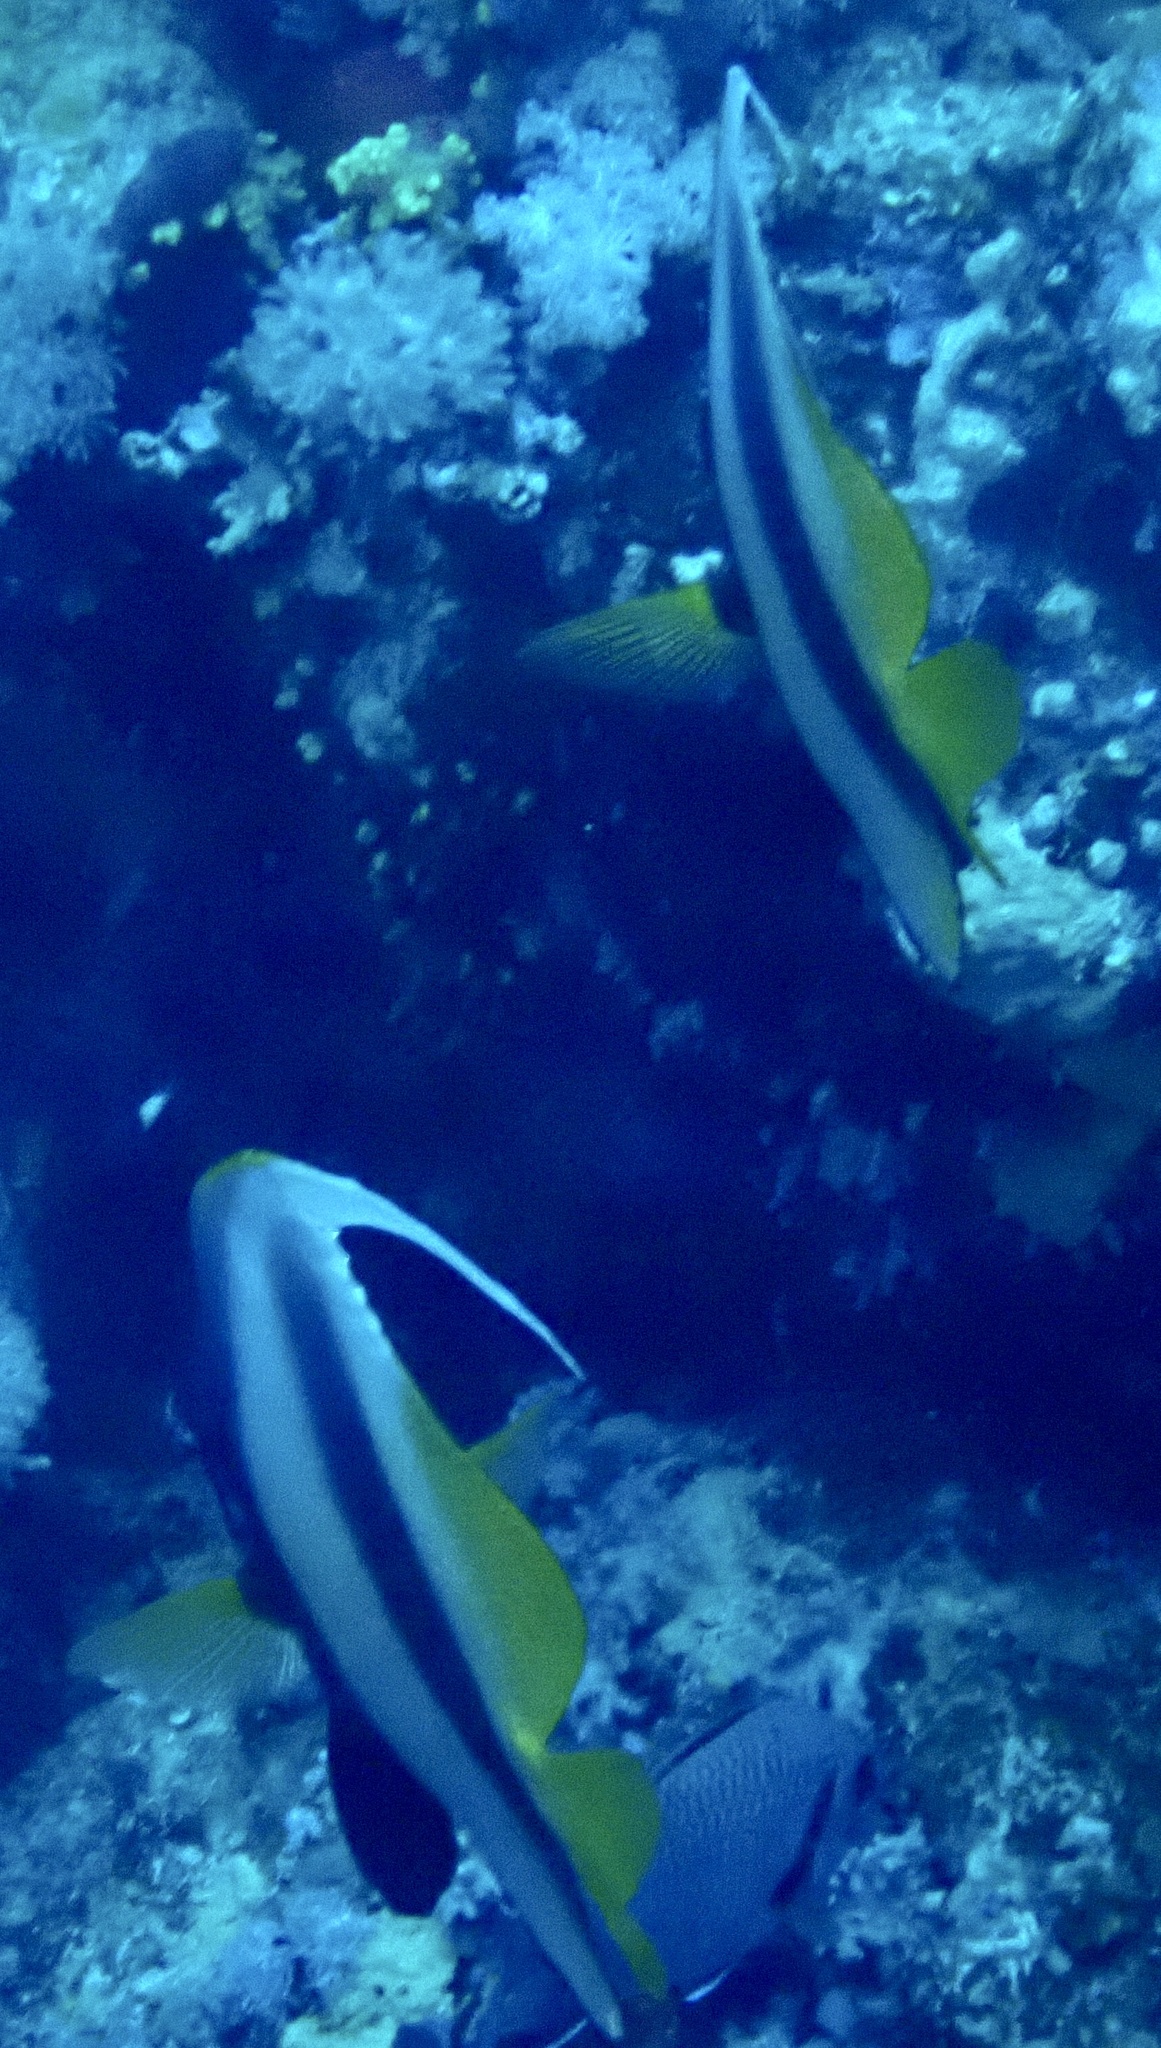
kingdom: Animalia
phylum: Chordata
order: Perciformes
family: Chaetodontidae
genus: Heniochus
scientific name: Heniochus intermedius
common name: Red sea bannerfish
